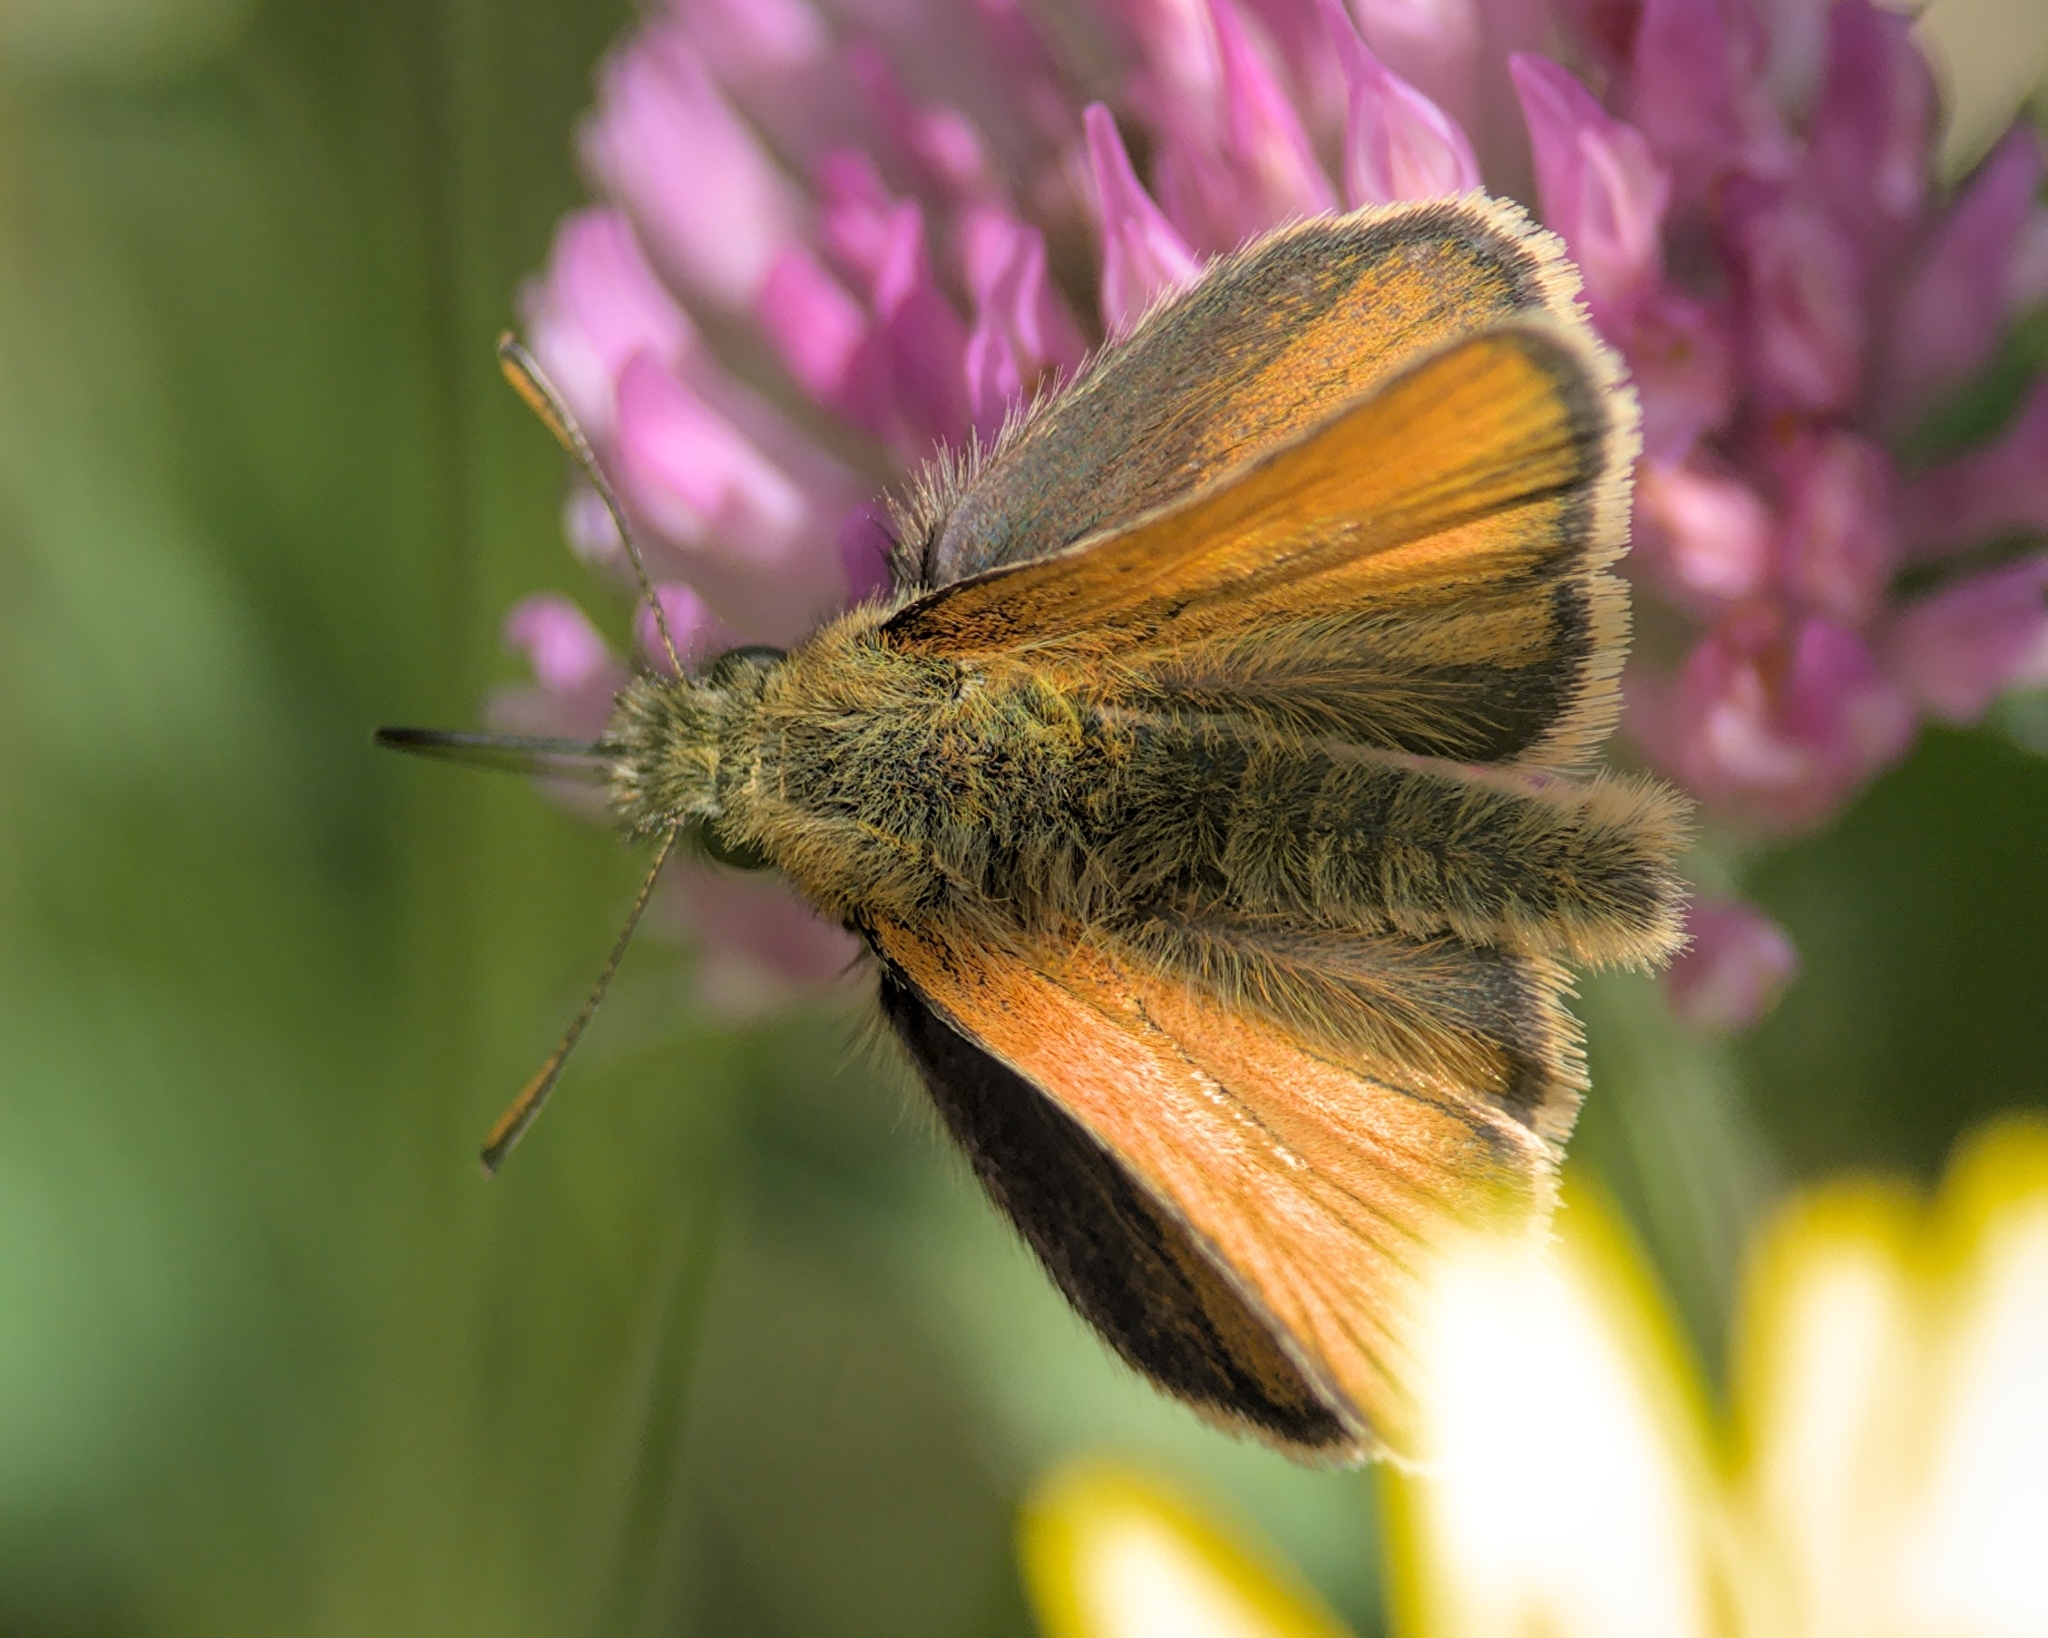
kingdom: Animalia
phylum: Arthropoda
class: Insecta
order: Lepidoptera
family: Hesperiidae
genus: Thymelicus
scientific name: Thymelicus sylvestris
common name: Small skipper
